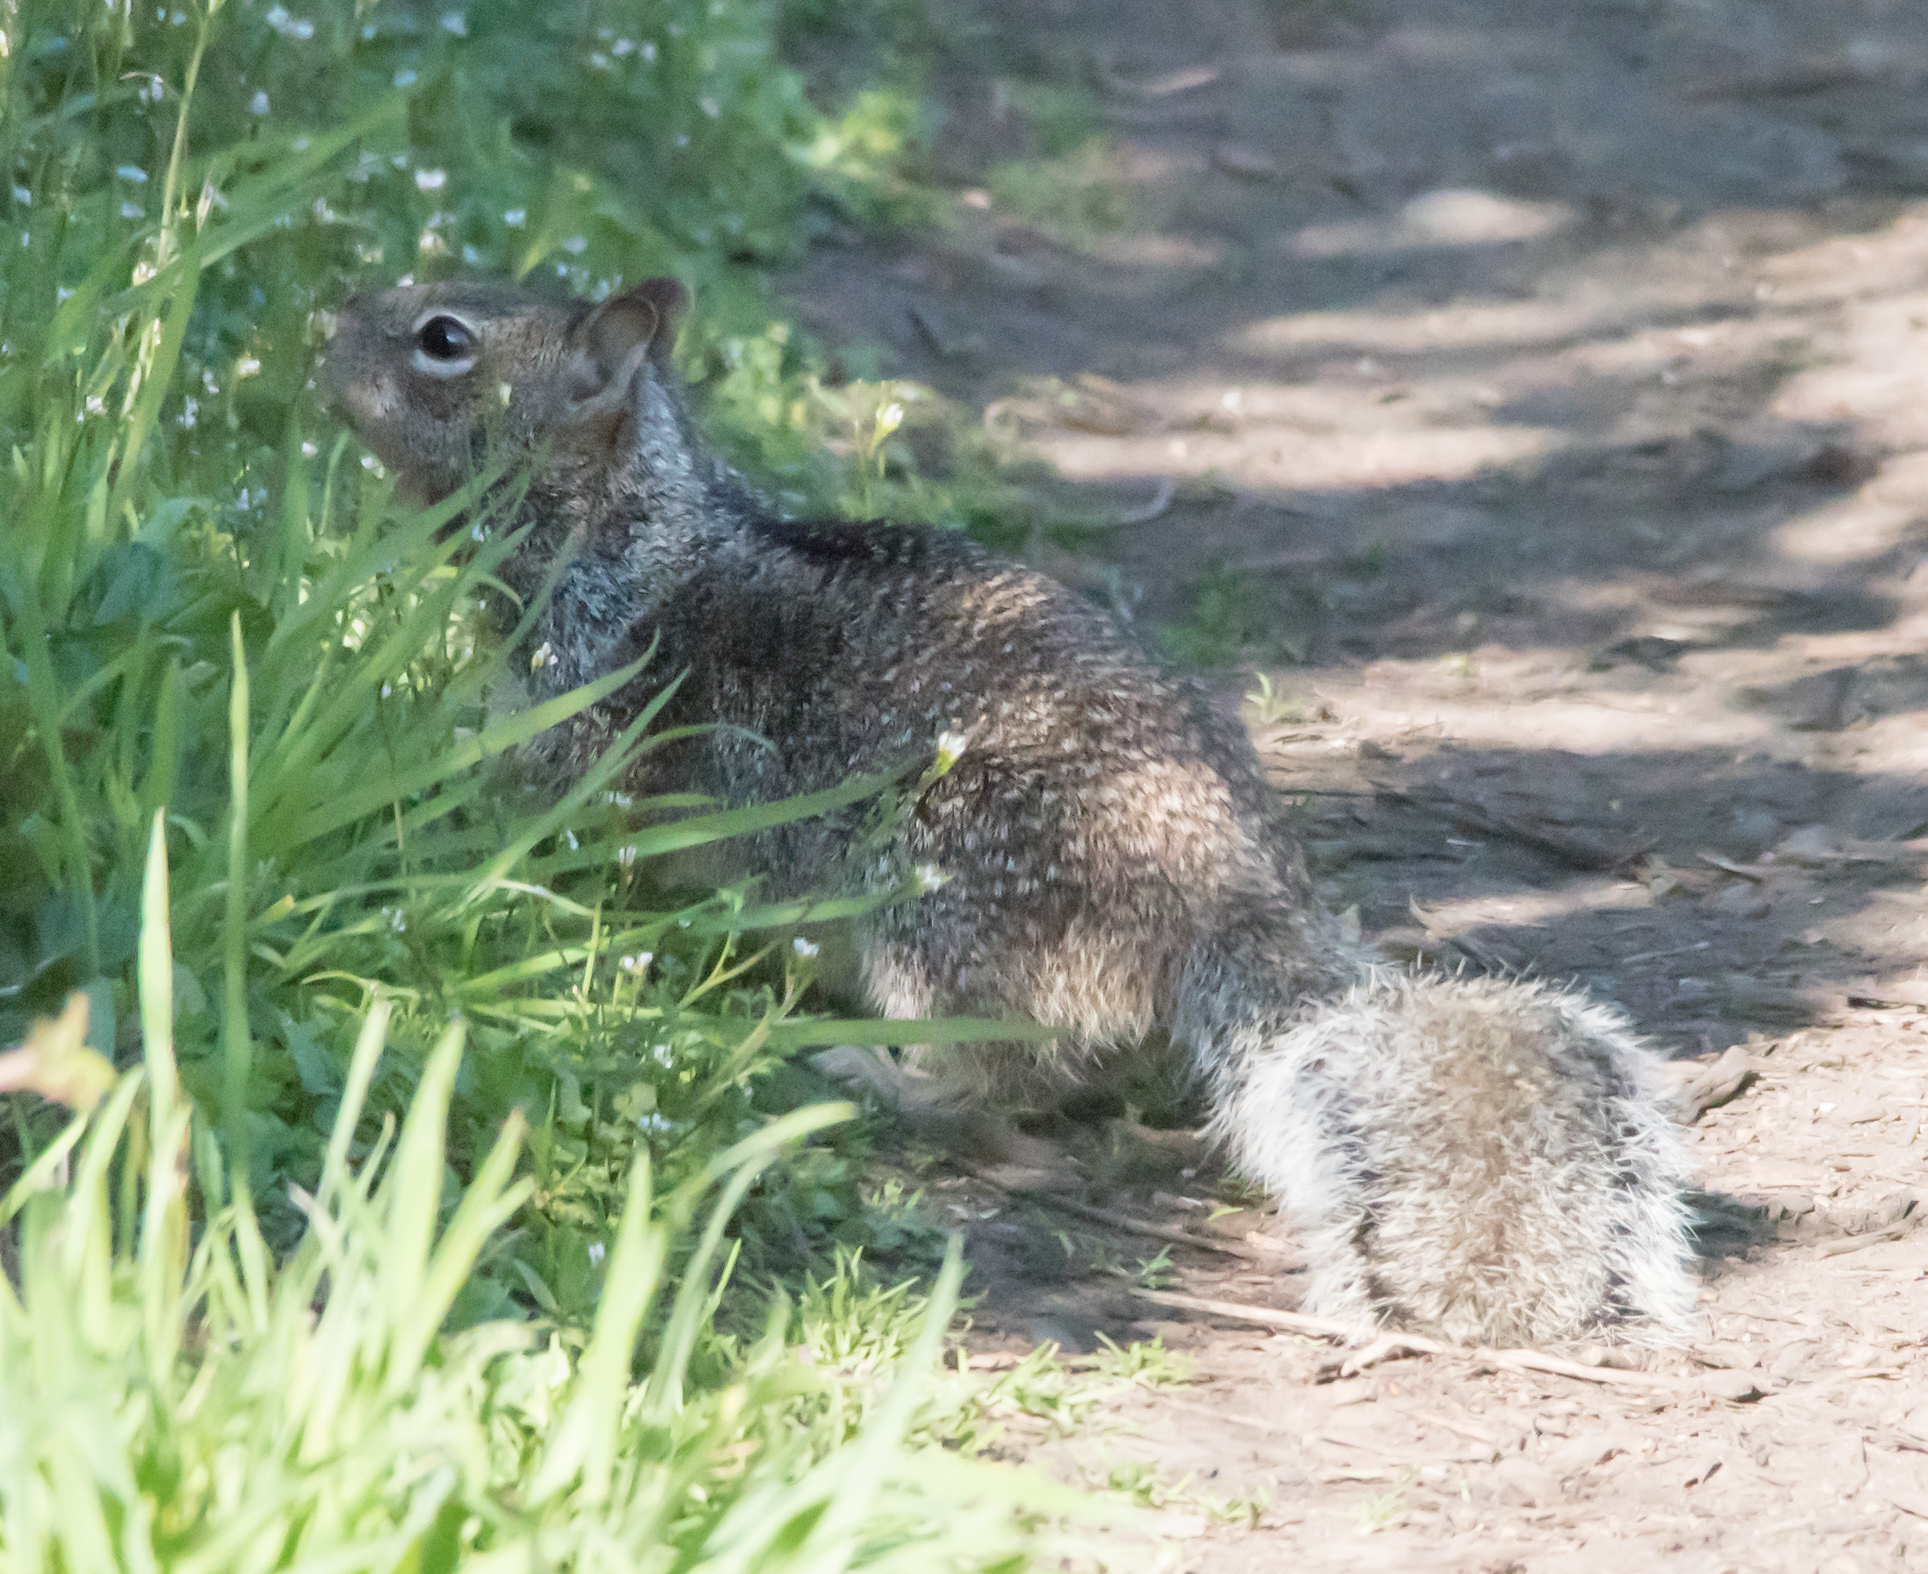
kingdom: Animalia
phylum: Chordata
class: Mammalia
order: Rodentia
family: Sciuridae
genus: Otospermophilus
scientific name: Otospermophilus beecheyi
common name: California ground squirrel
